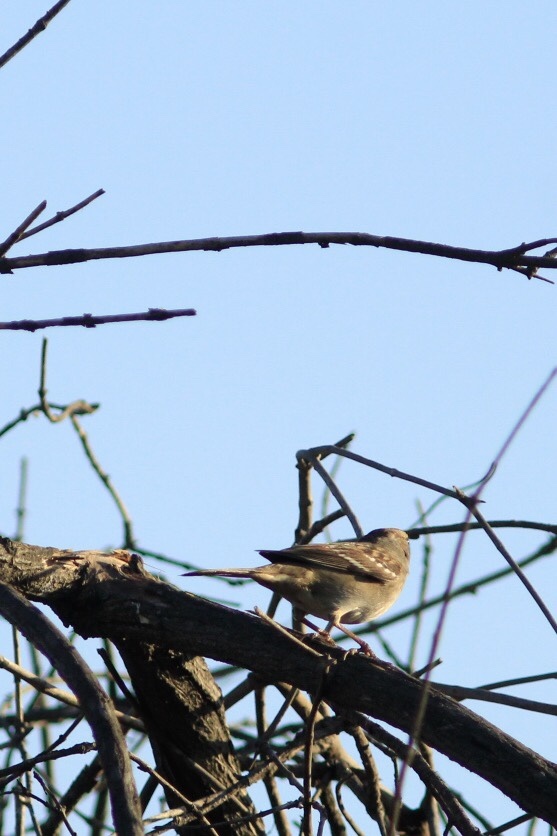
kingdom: Animalia
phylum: Chordata
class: Aves
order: Passeriformes
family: Passerellidae
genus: Zonotrichia
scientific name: Zonotrichia leucophrys
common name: White-crowned sparrow
